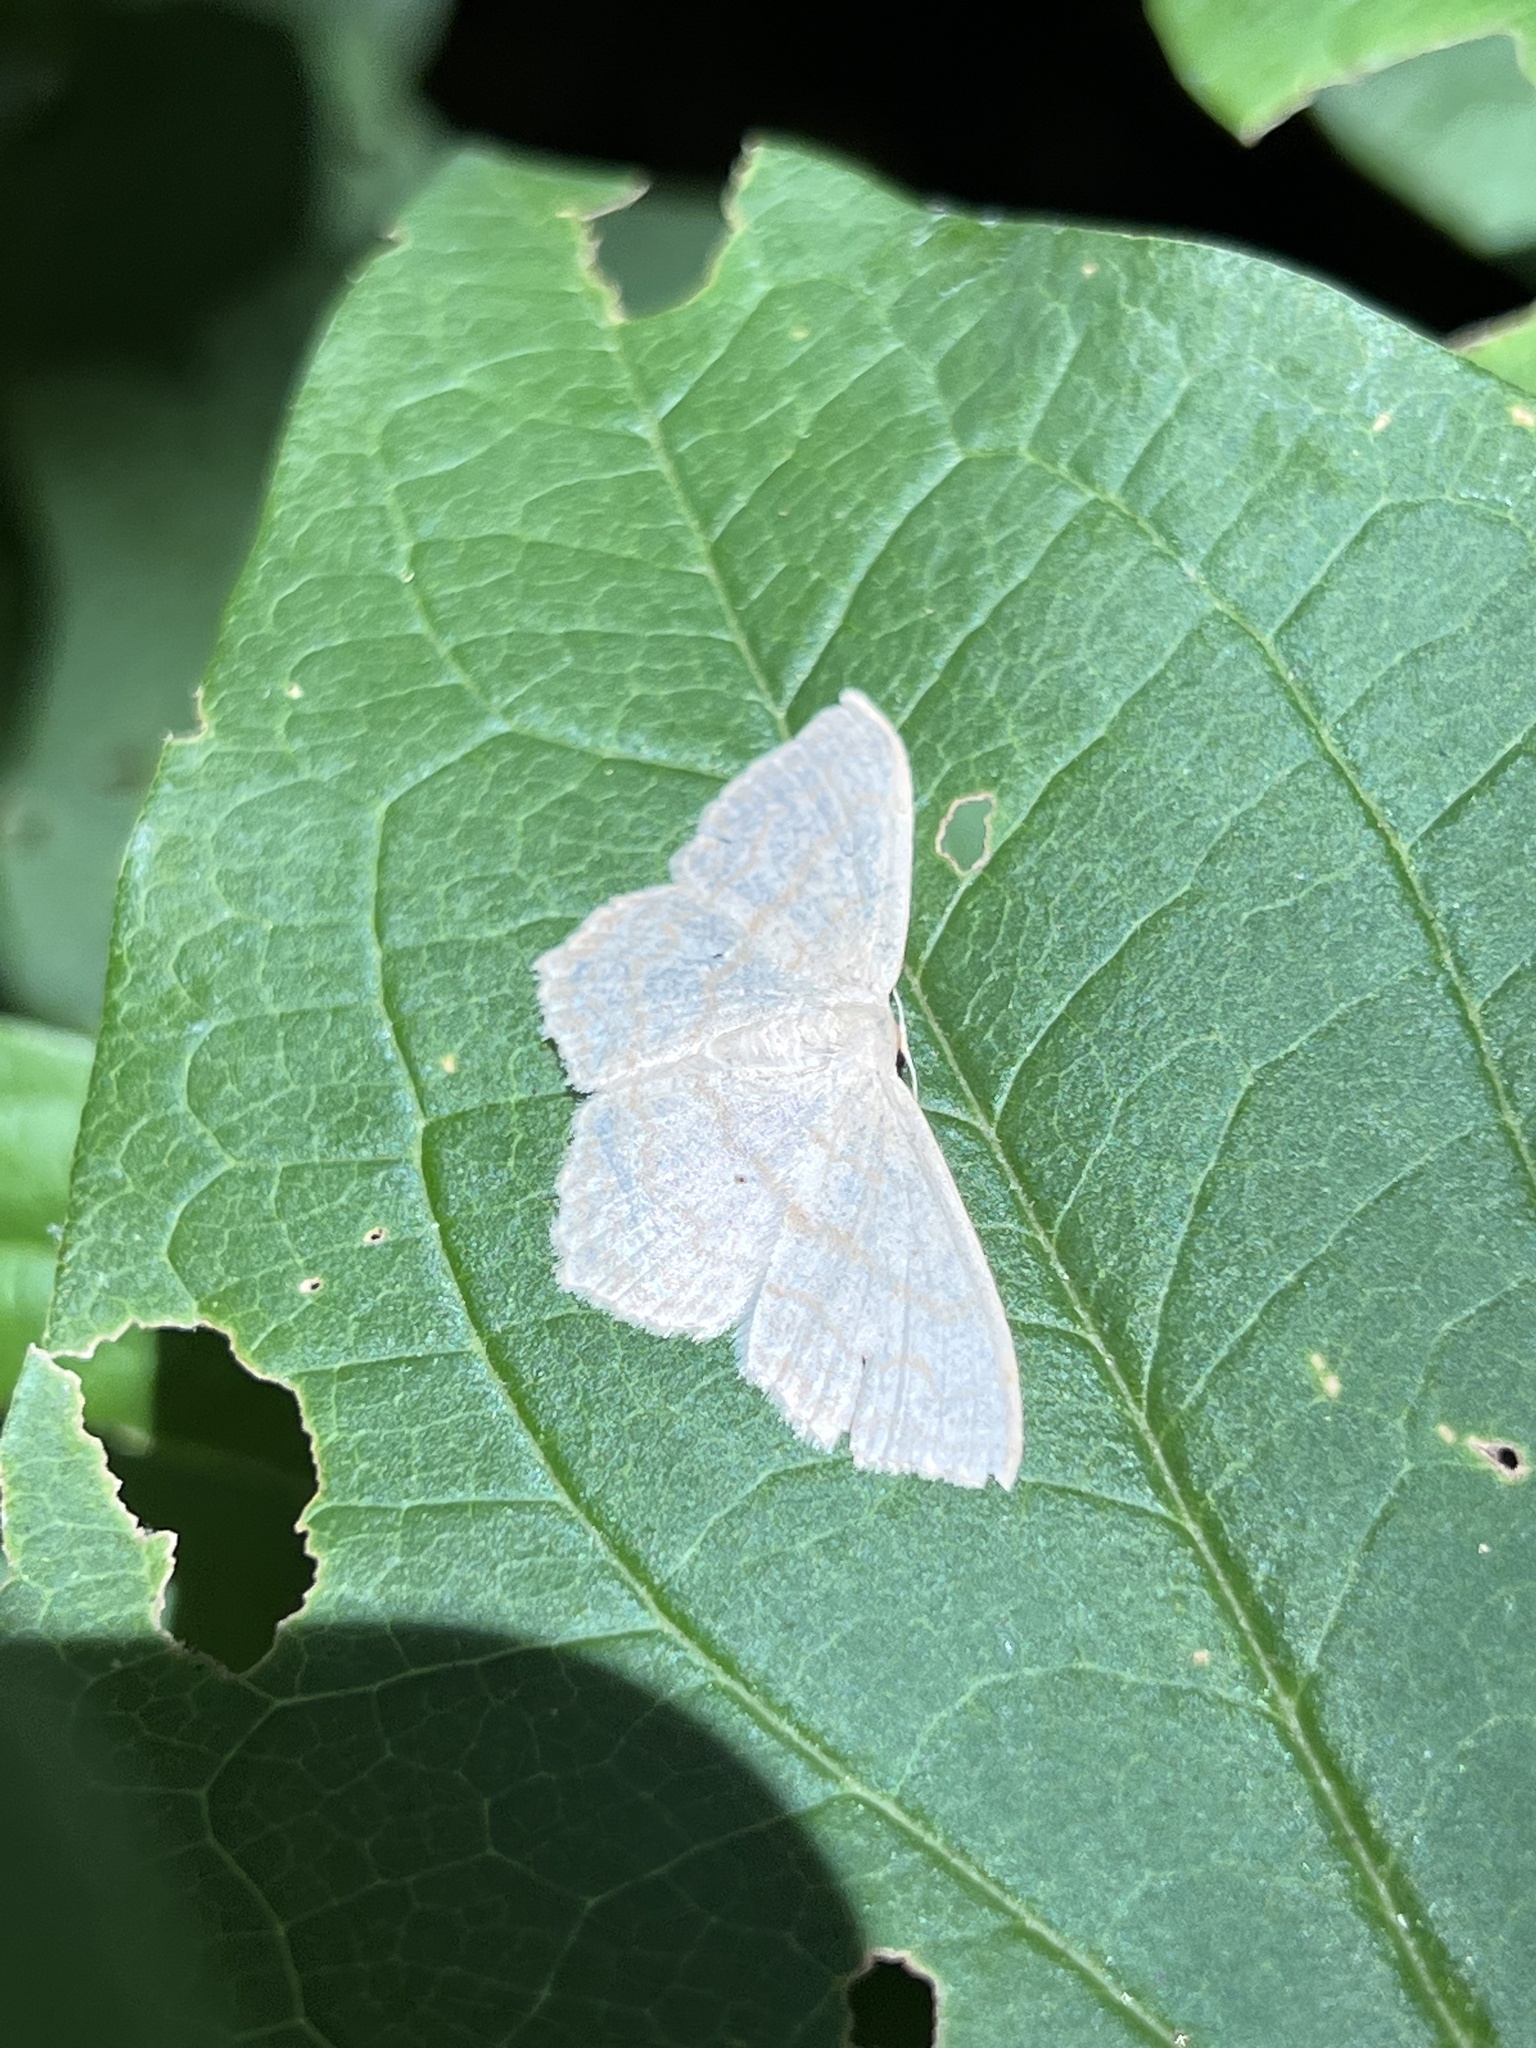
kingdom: Animalia
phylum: Arthropoda
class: Insecta
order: Lepidoptera
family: Geometridae
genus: Scopula
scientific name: Scopula limboundata
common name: Large lace border
